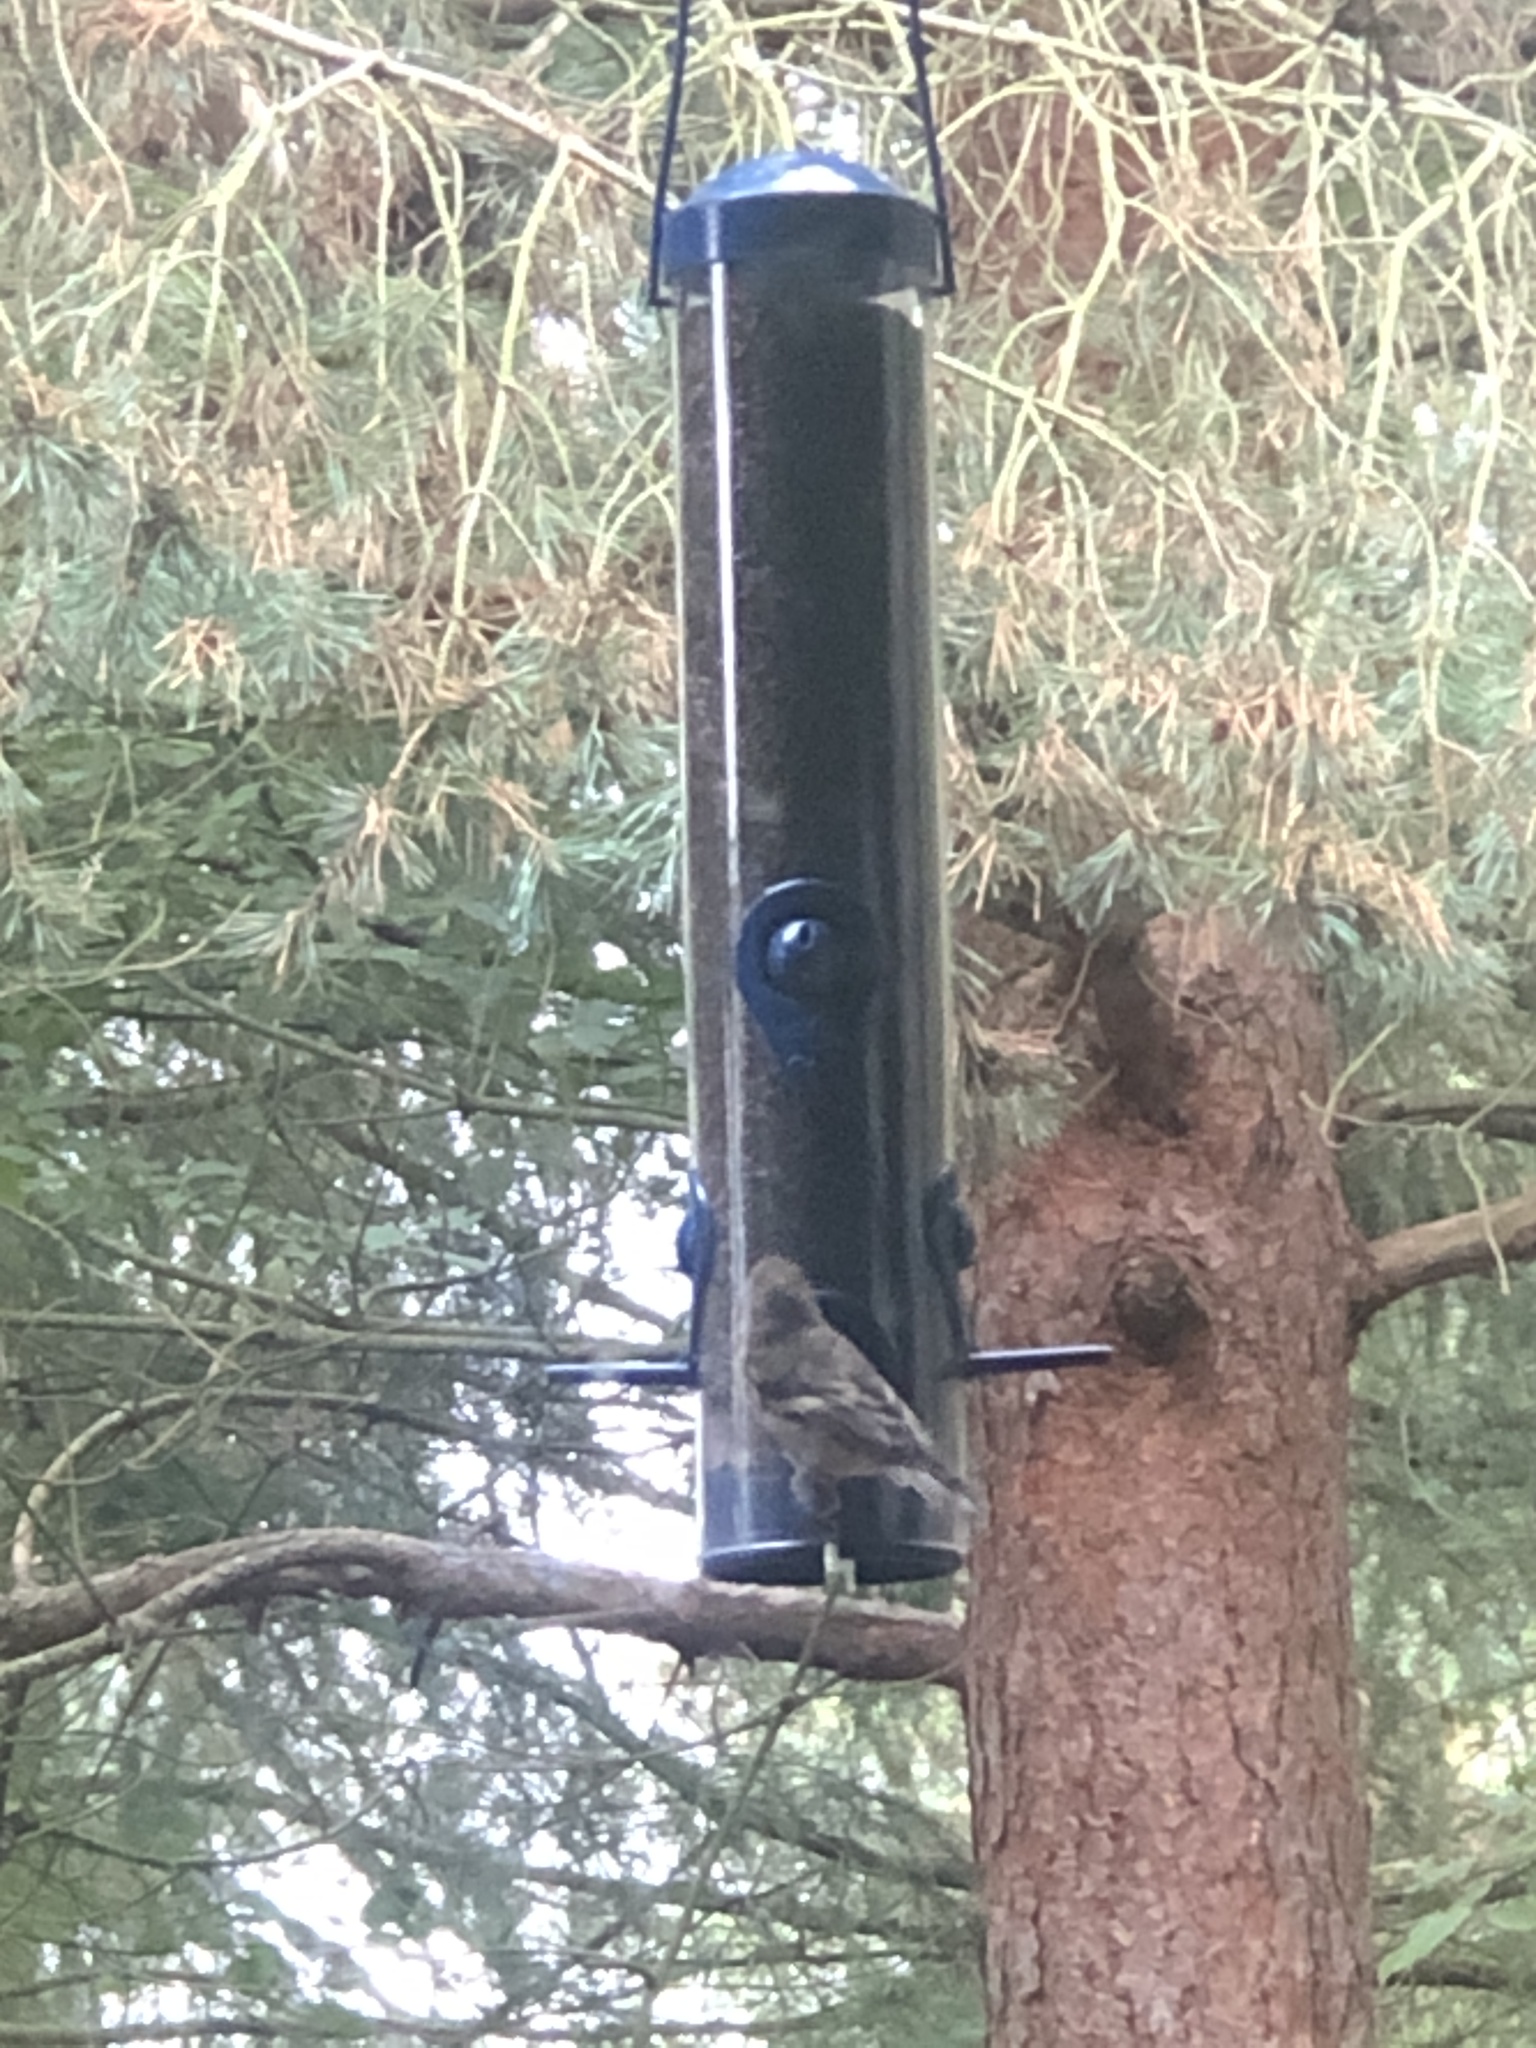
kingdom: Animalia
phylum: Chordata
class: Aves
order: Passeriformes
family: Fringillidae
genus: Spinus
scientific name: Spinus tristis
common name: American goldfinch
